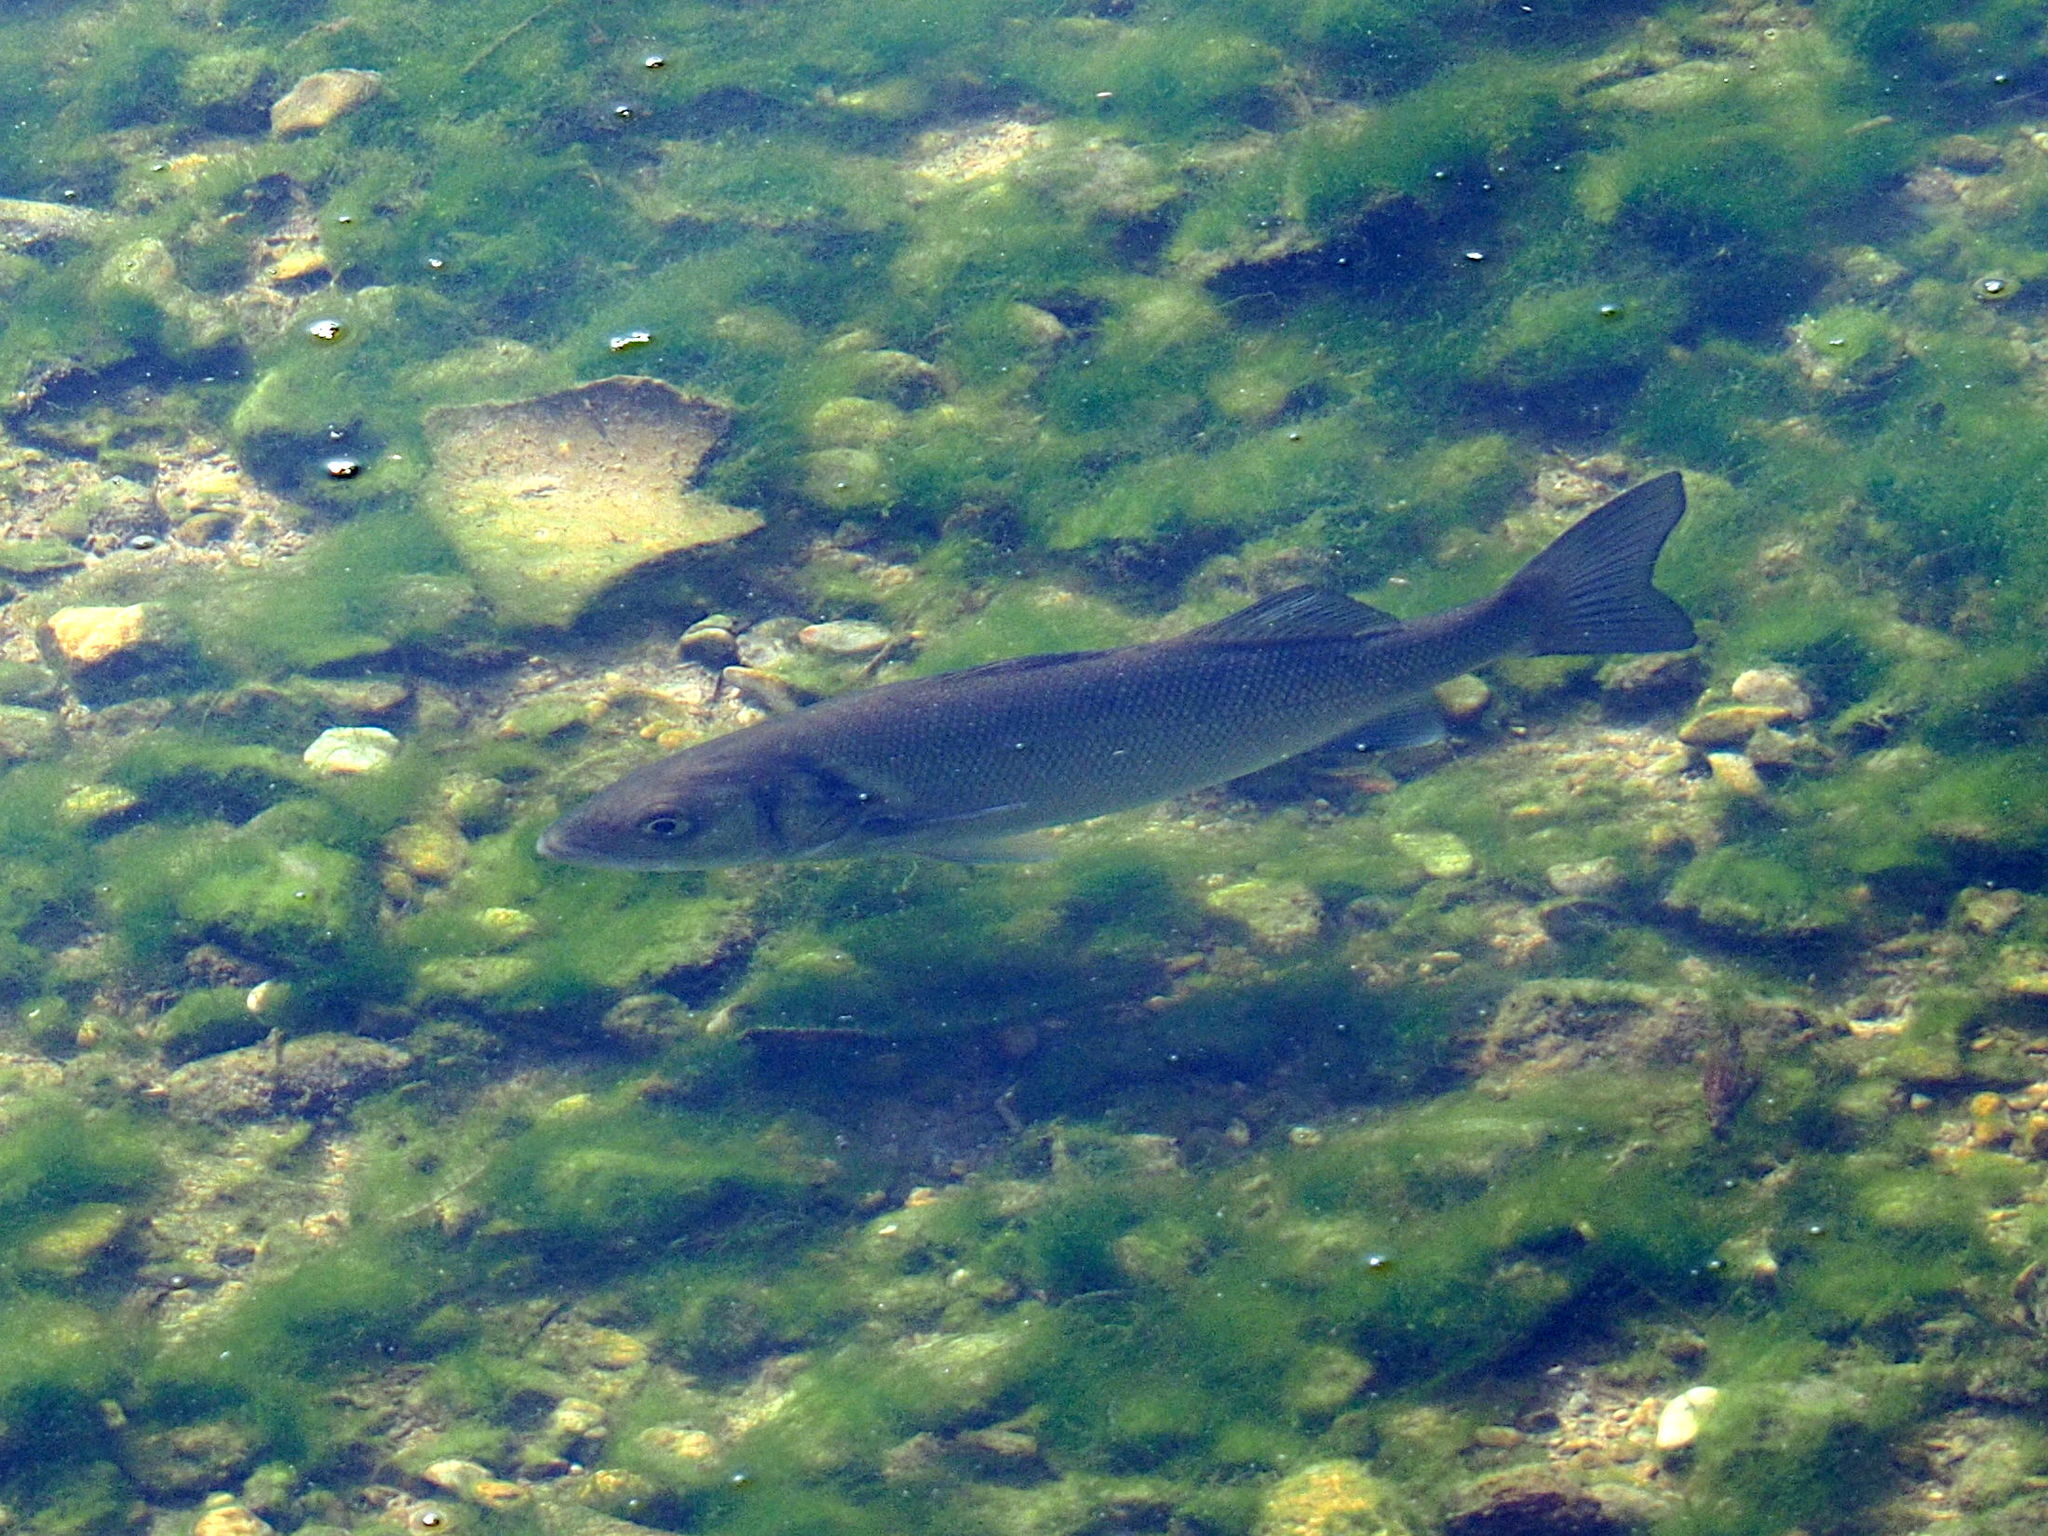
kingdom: Animalia
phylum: Chordata
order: Perciformes
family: Moronidae
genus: Dicentrarchus
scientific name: Dicentrarchus labrax
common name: European seabass
